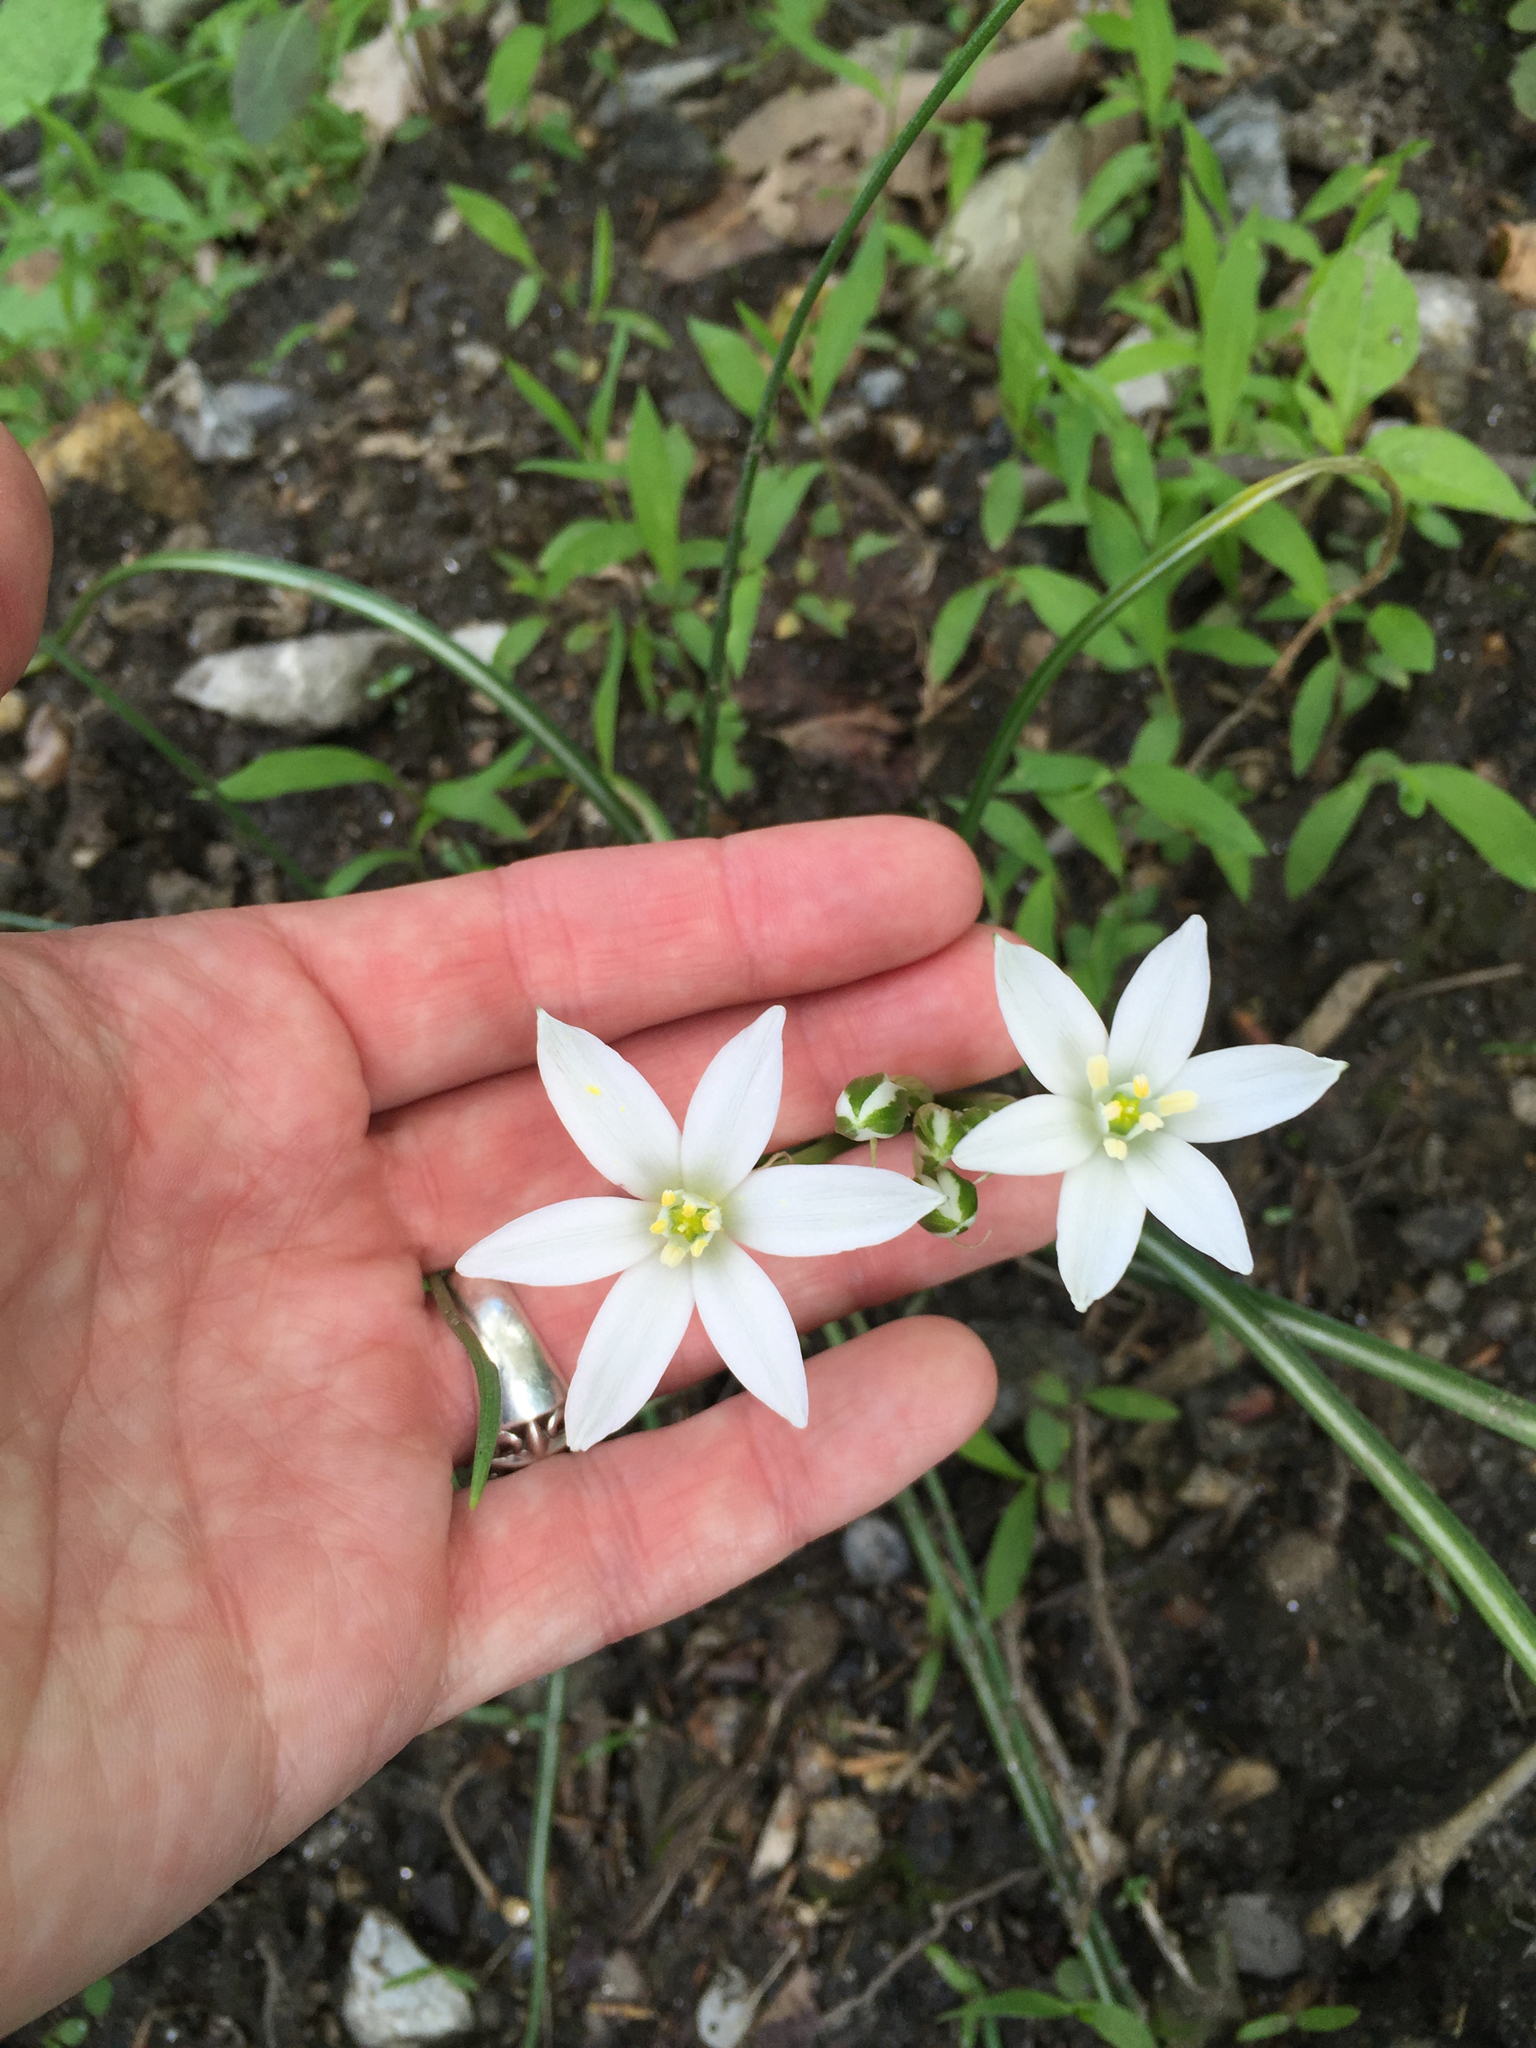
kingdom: Plantae
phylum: Tracheophyta
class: Liliopsida
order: Asparagales
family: Asparagaceae
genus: Ornithogalum
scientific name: Ornithogalum
